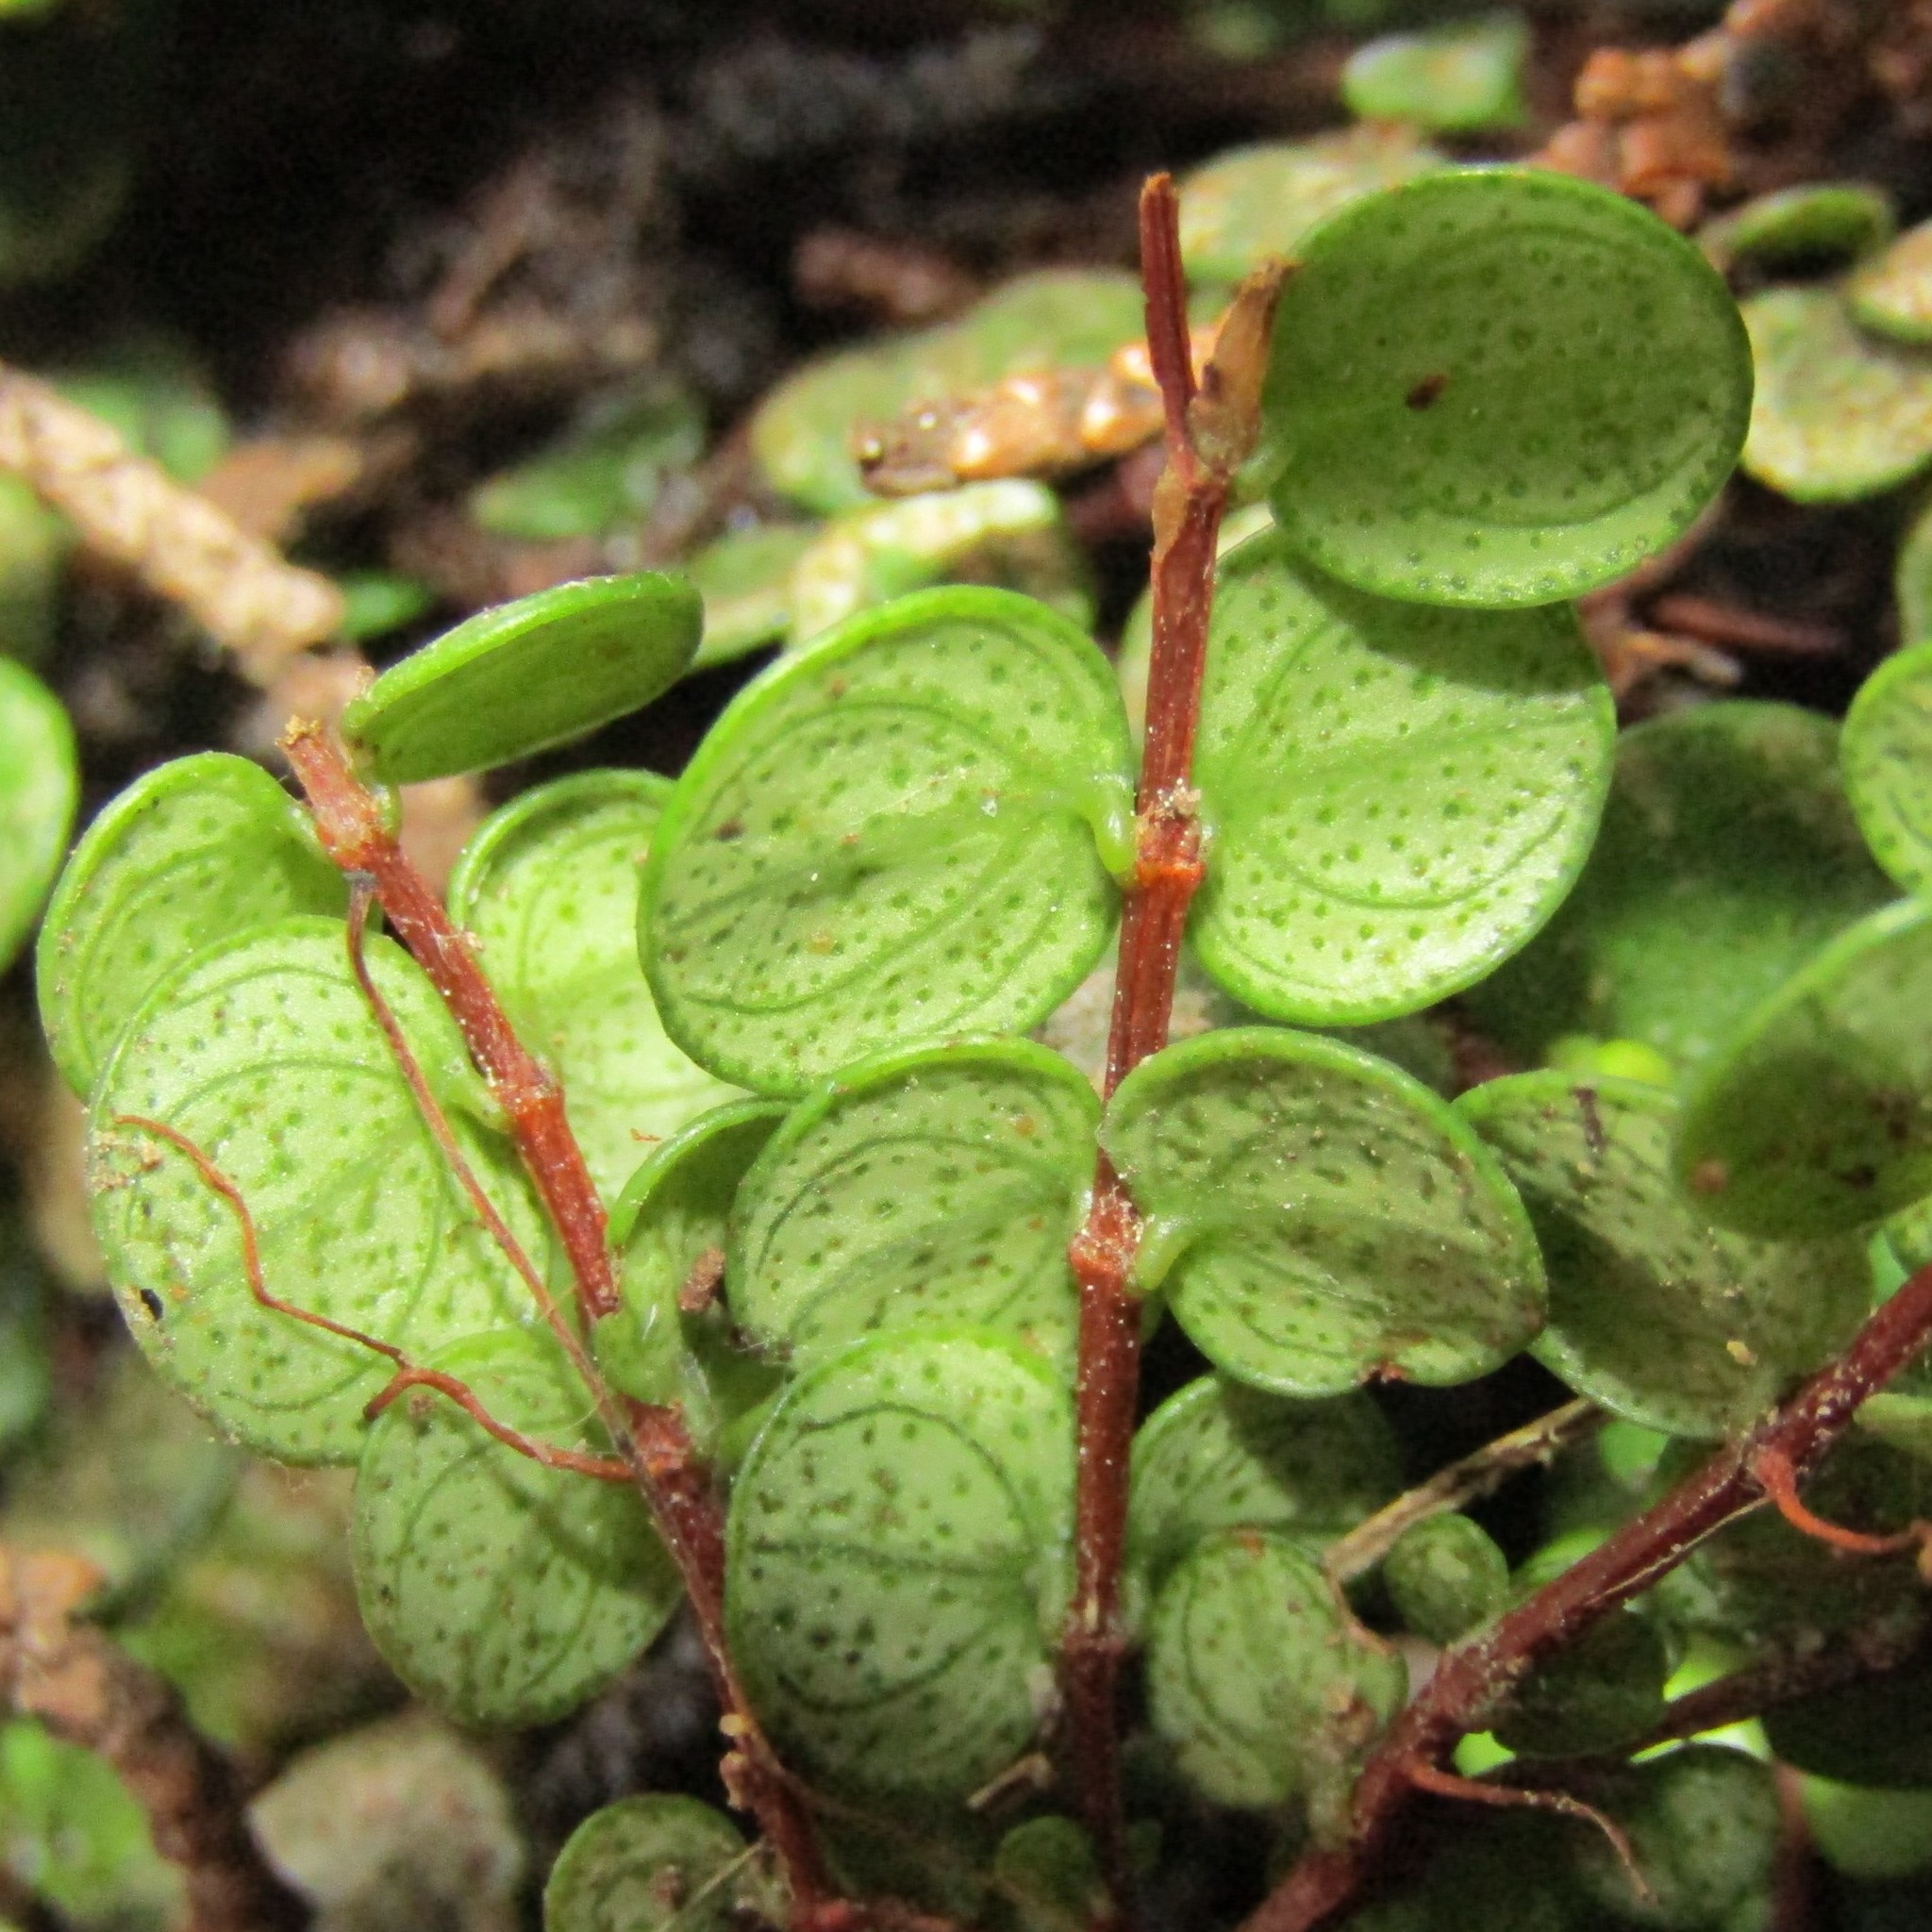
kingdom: Plantae
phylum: Tracheophyta
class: Magnoliopsida
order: Myrtales
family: Myrtaceae
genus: Metrosideros
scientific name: Metrosideros perforata
